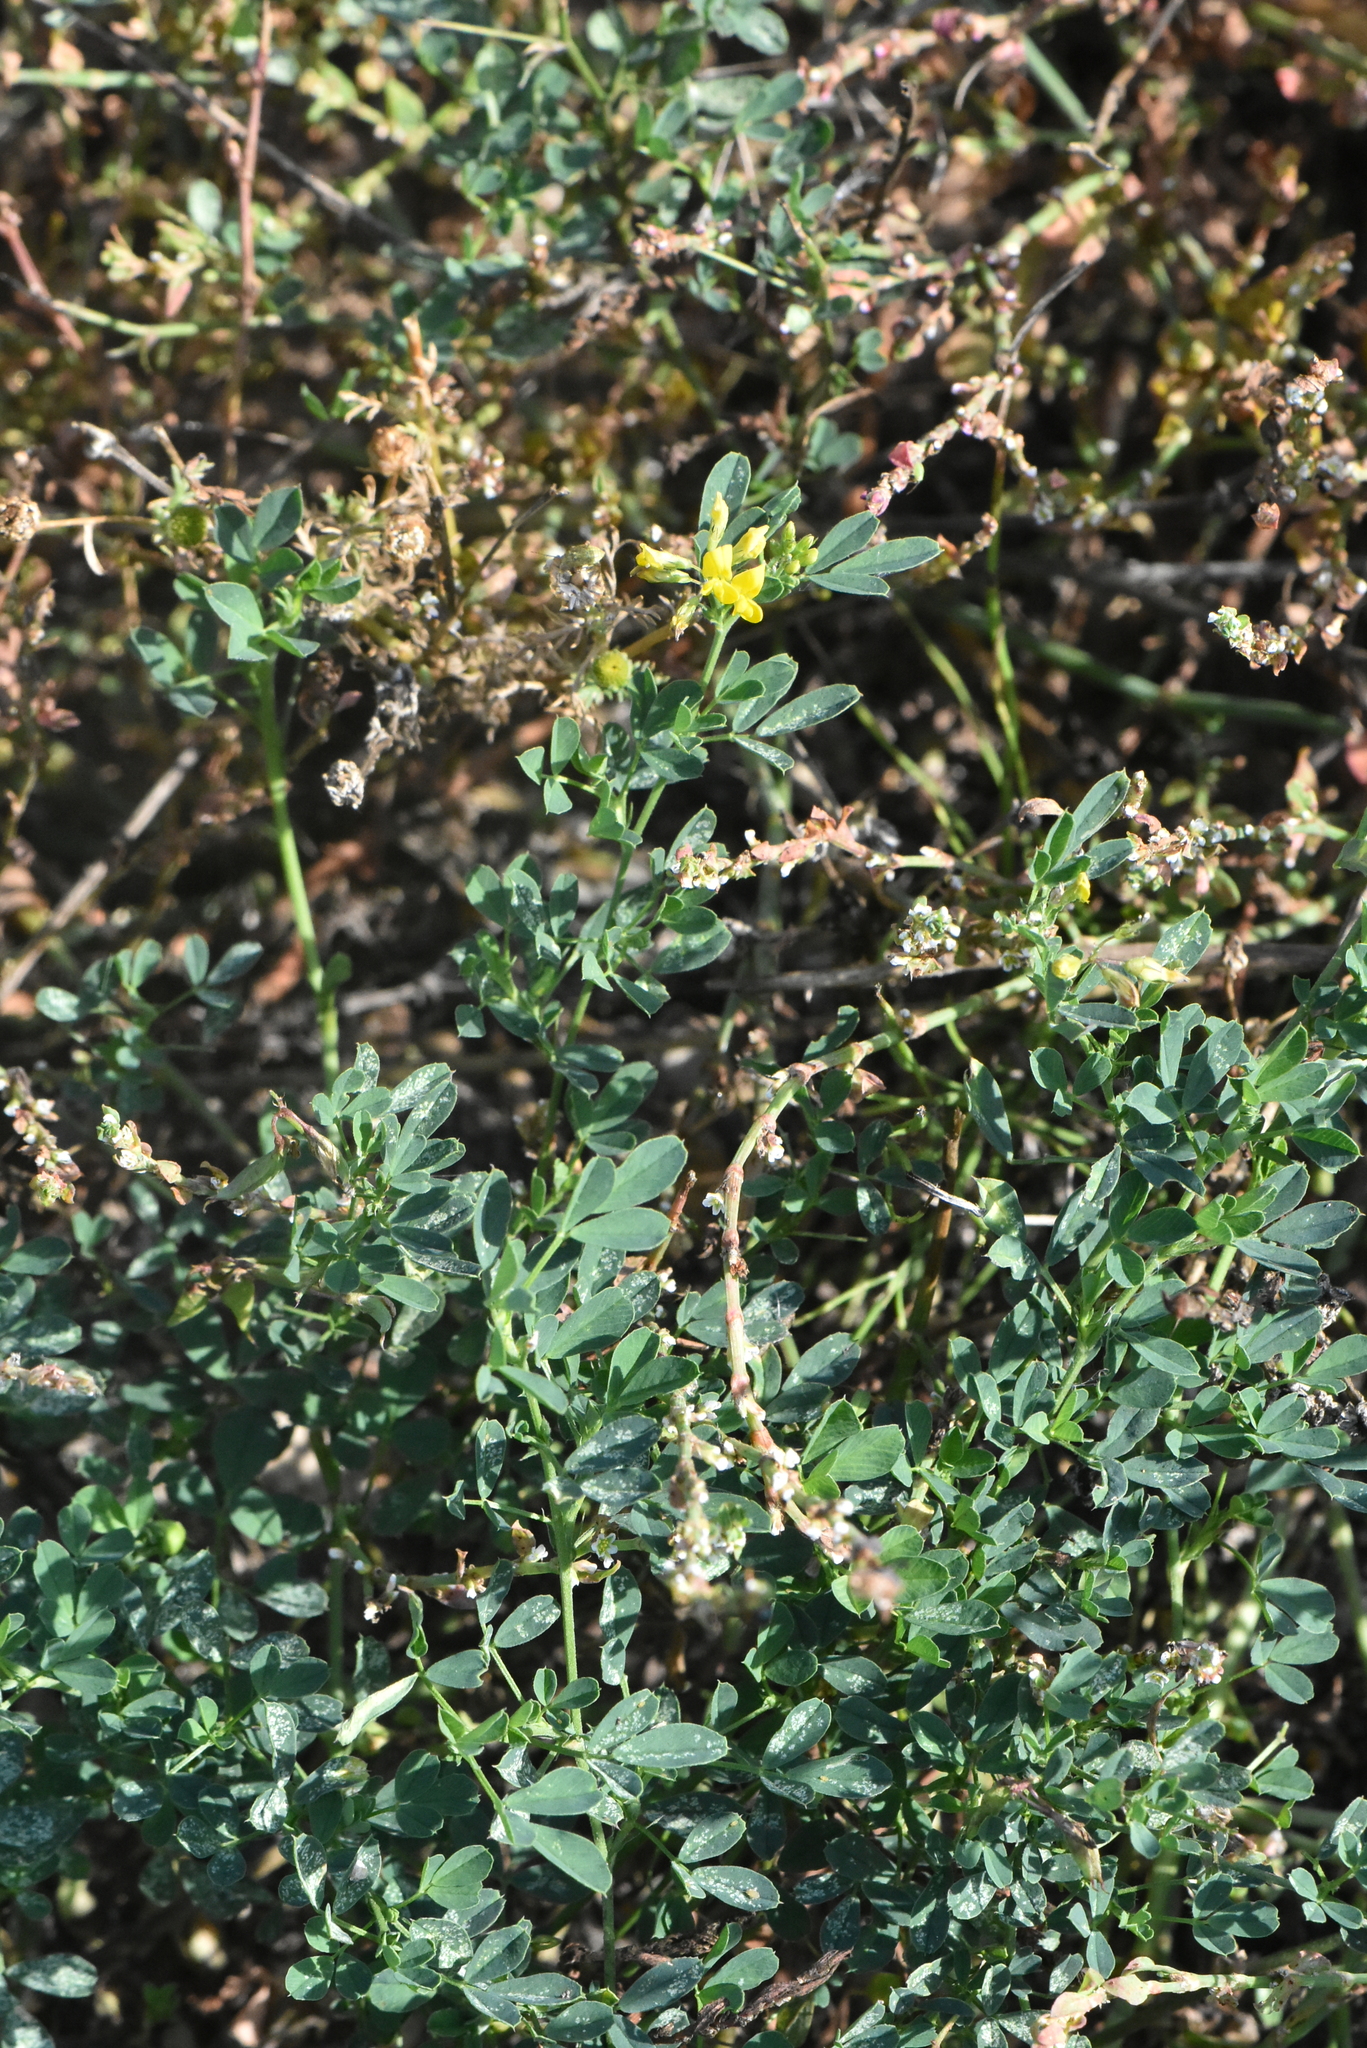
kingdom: Plantae
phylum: Tracheophyta
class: Magnoliopsida
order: Fabales
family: Fabaceae
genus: Medicago
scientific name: Medicago falcata
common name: Sickle medick
